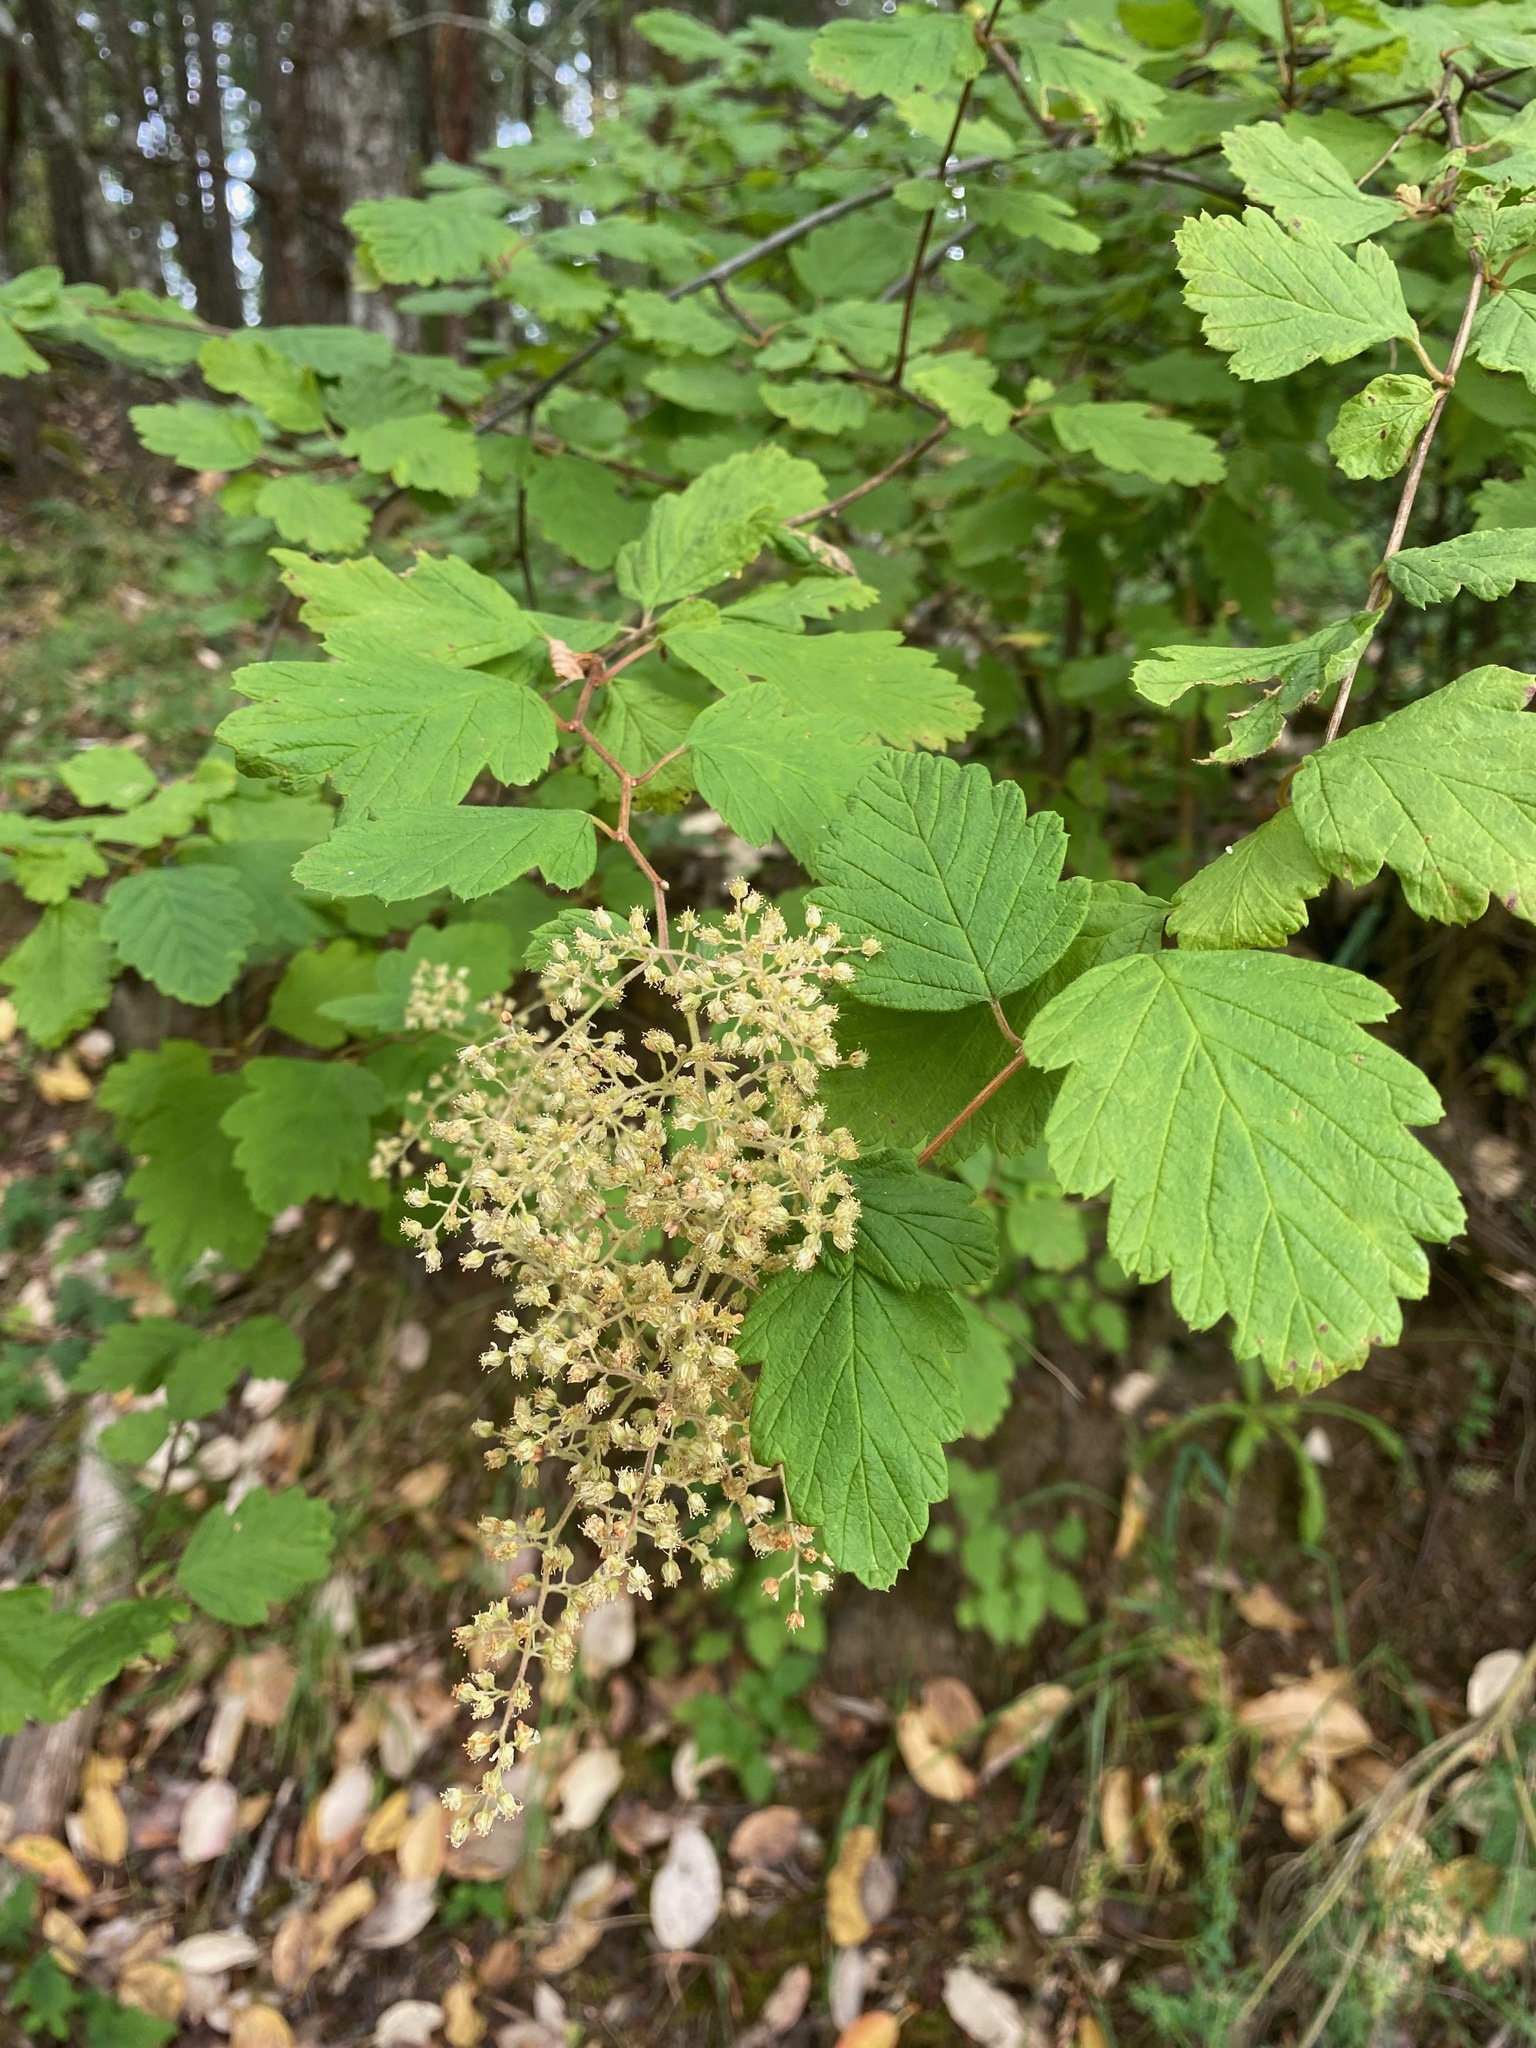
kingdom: Plantae
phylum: Tracheophyta
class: Magnoliopsida
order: Rosales
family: Rosaceae
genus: Holodiscus
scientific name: Holodiscus discolor
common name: Oceanspray
